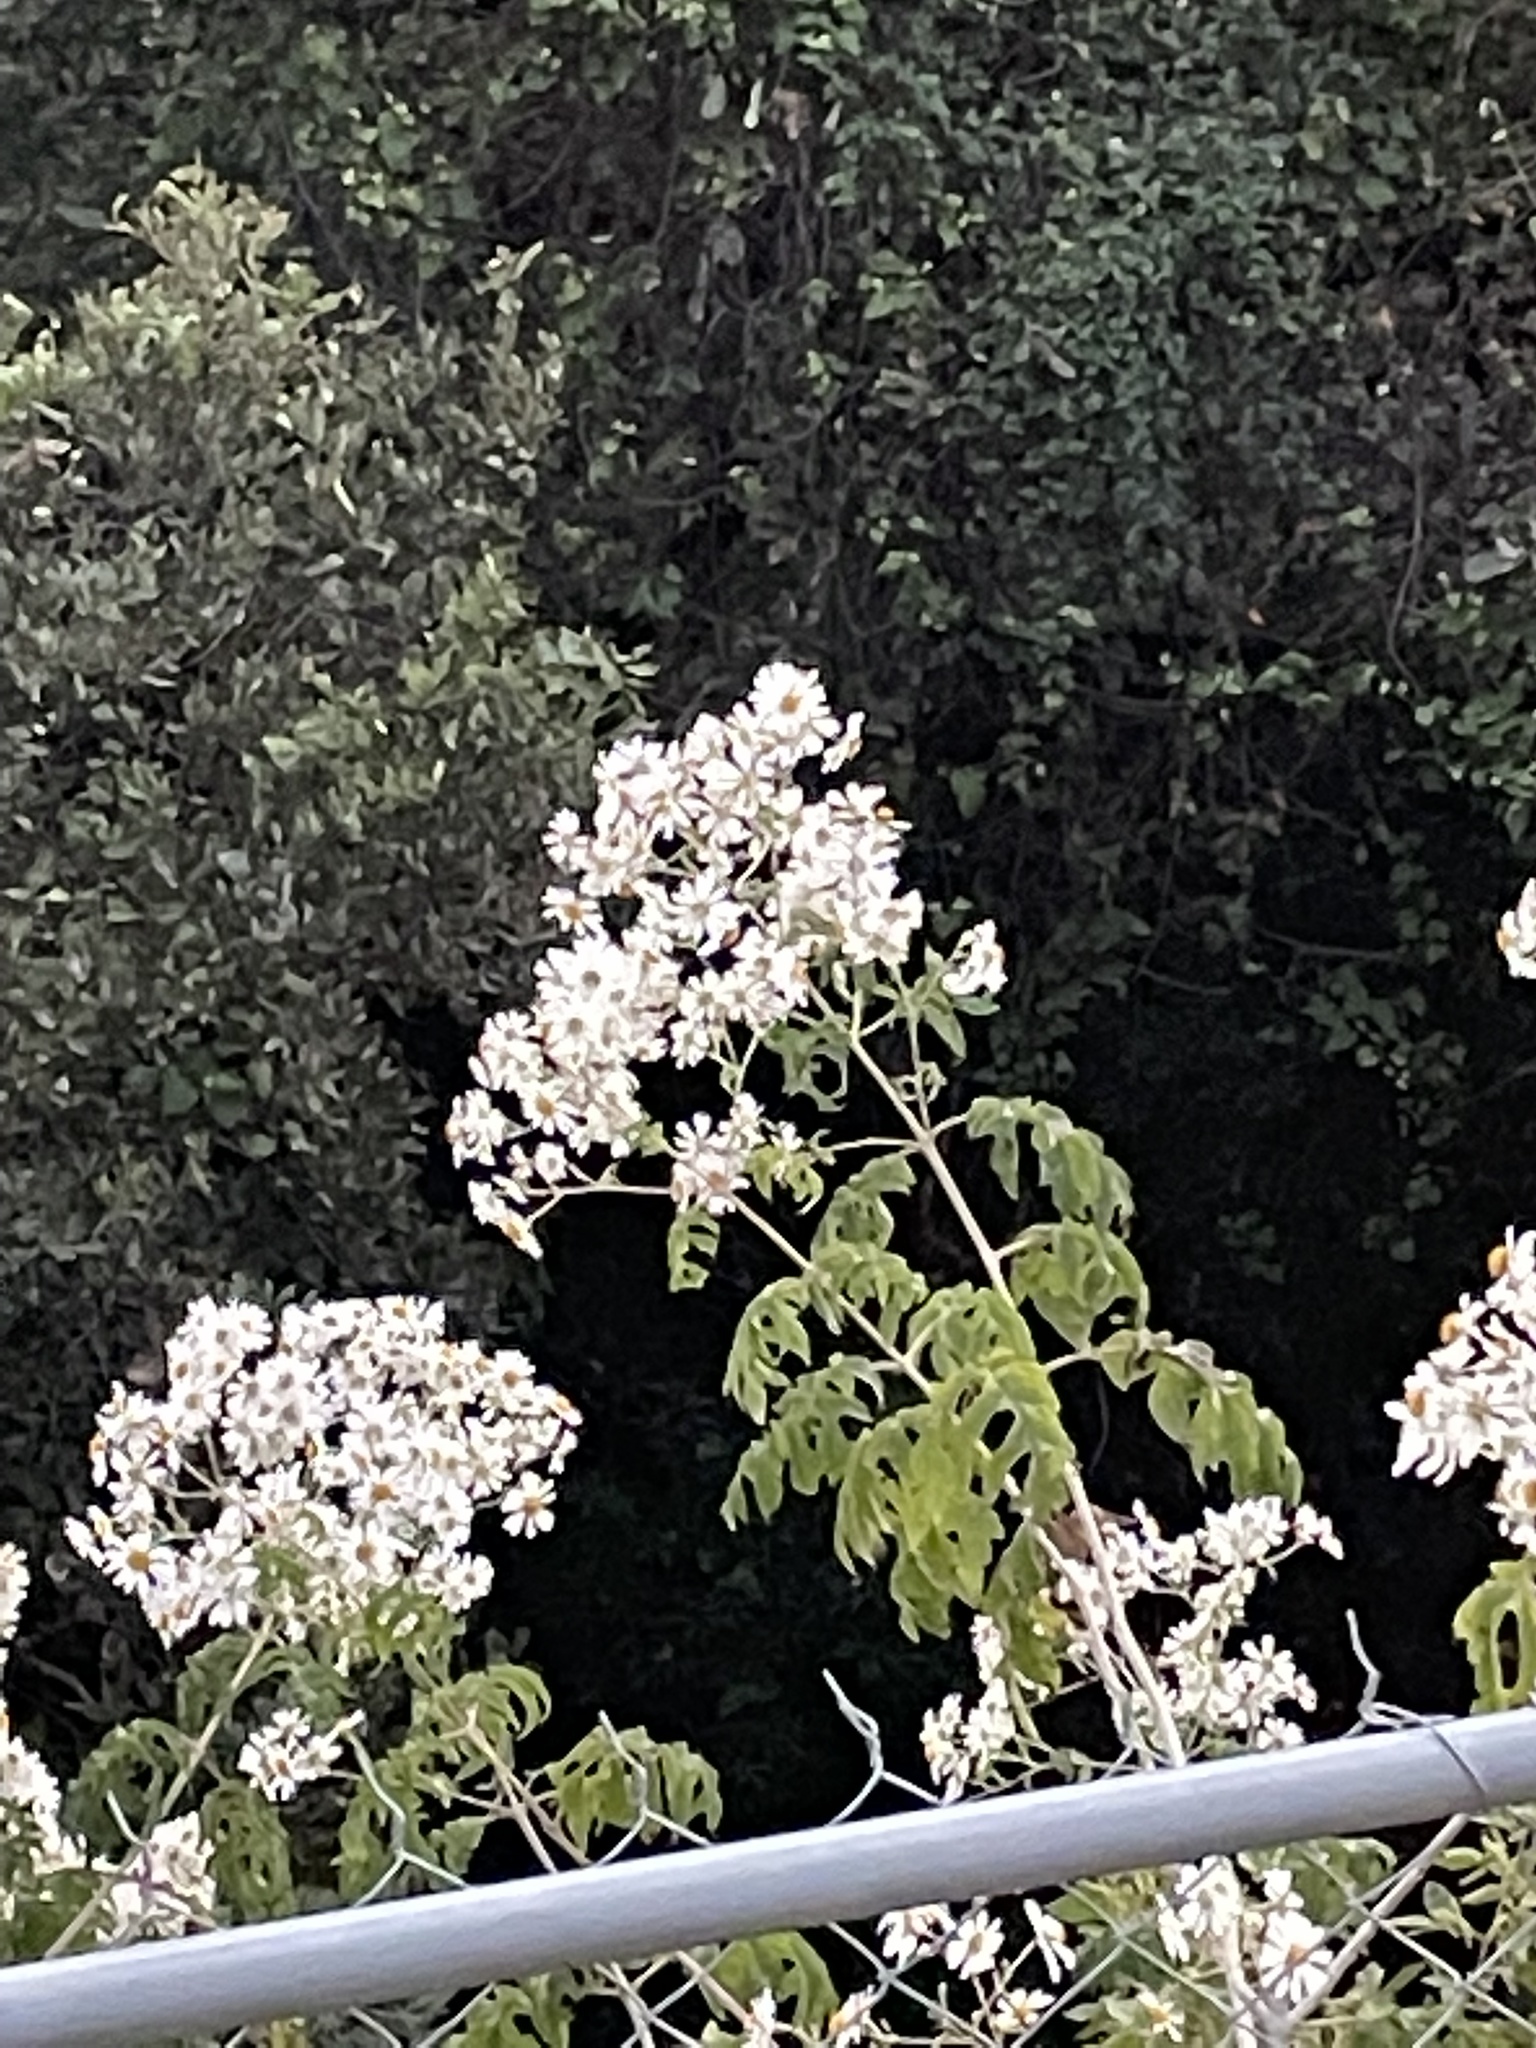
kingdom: Plantae
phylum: Tracheophyta
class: Magnoliopsida
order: Asterales
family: Asteraceae
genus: Montanoa
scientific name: Montanoa bipinnatifida
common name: Mexican daisy bush
